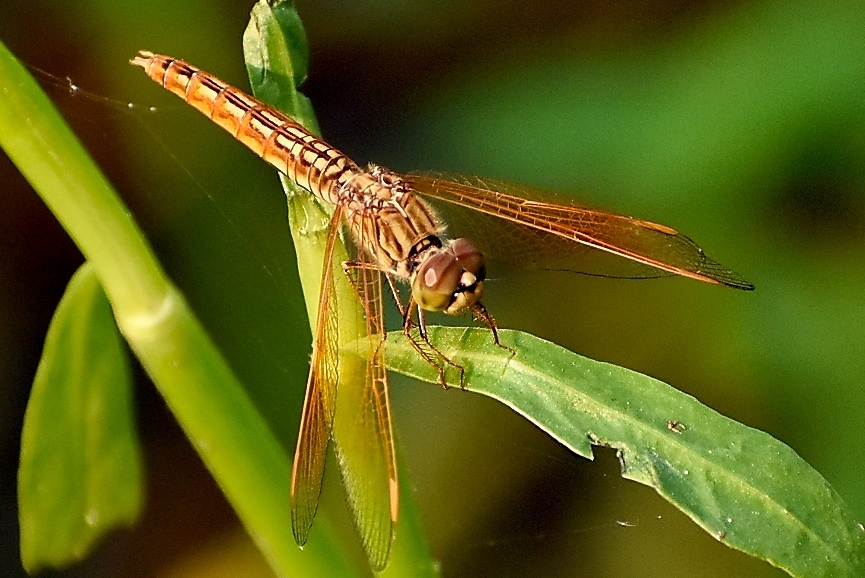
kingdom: Animalia
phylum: Arthropoda
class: Insecta
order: Odonata
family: Libellulidae
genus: Brachythemis
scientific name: Brachythemis contaminata
